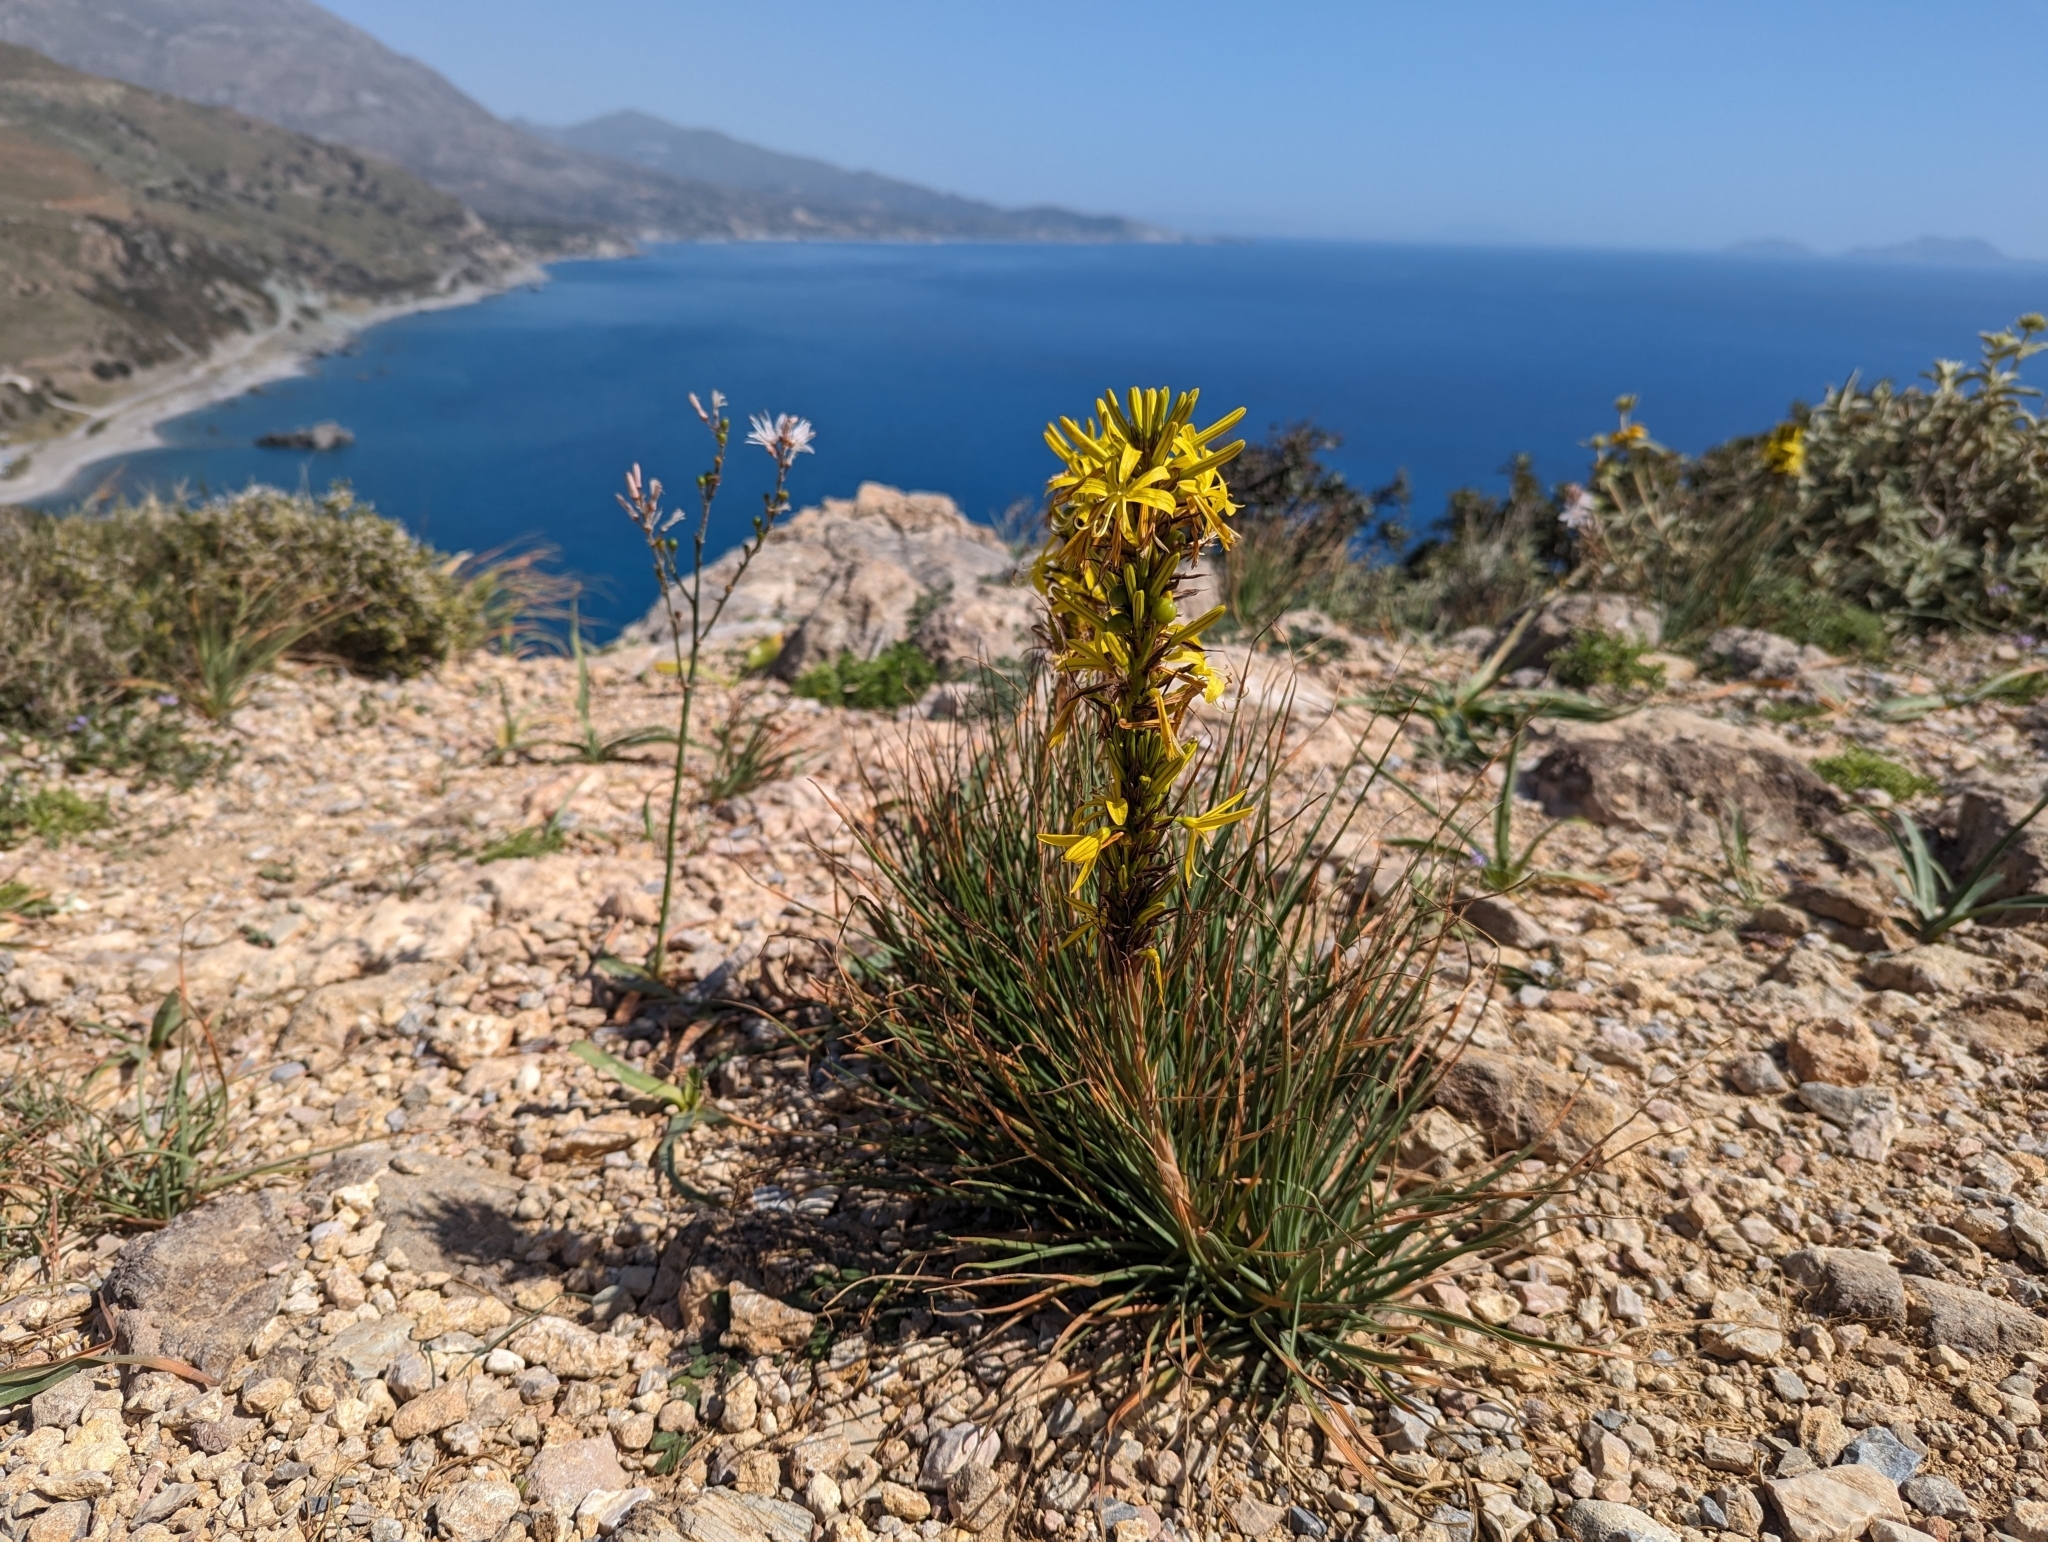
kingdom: Plantae
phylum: Tracheophyta
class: Liliopsida
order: Asparagales
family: Asphodelaceae
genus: Asphodeline
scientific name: Asphodeline lutea
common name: Yellow asphodel
